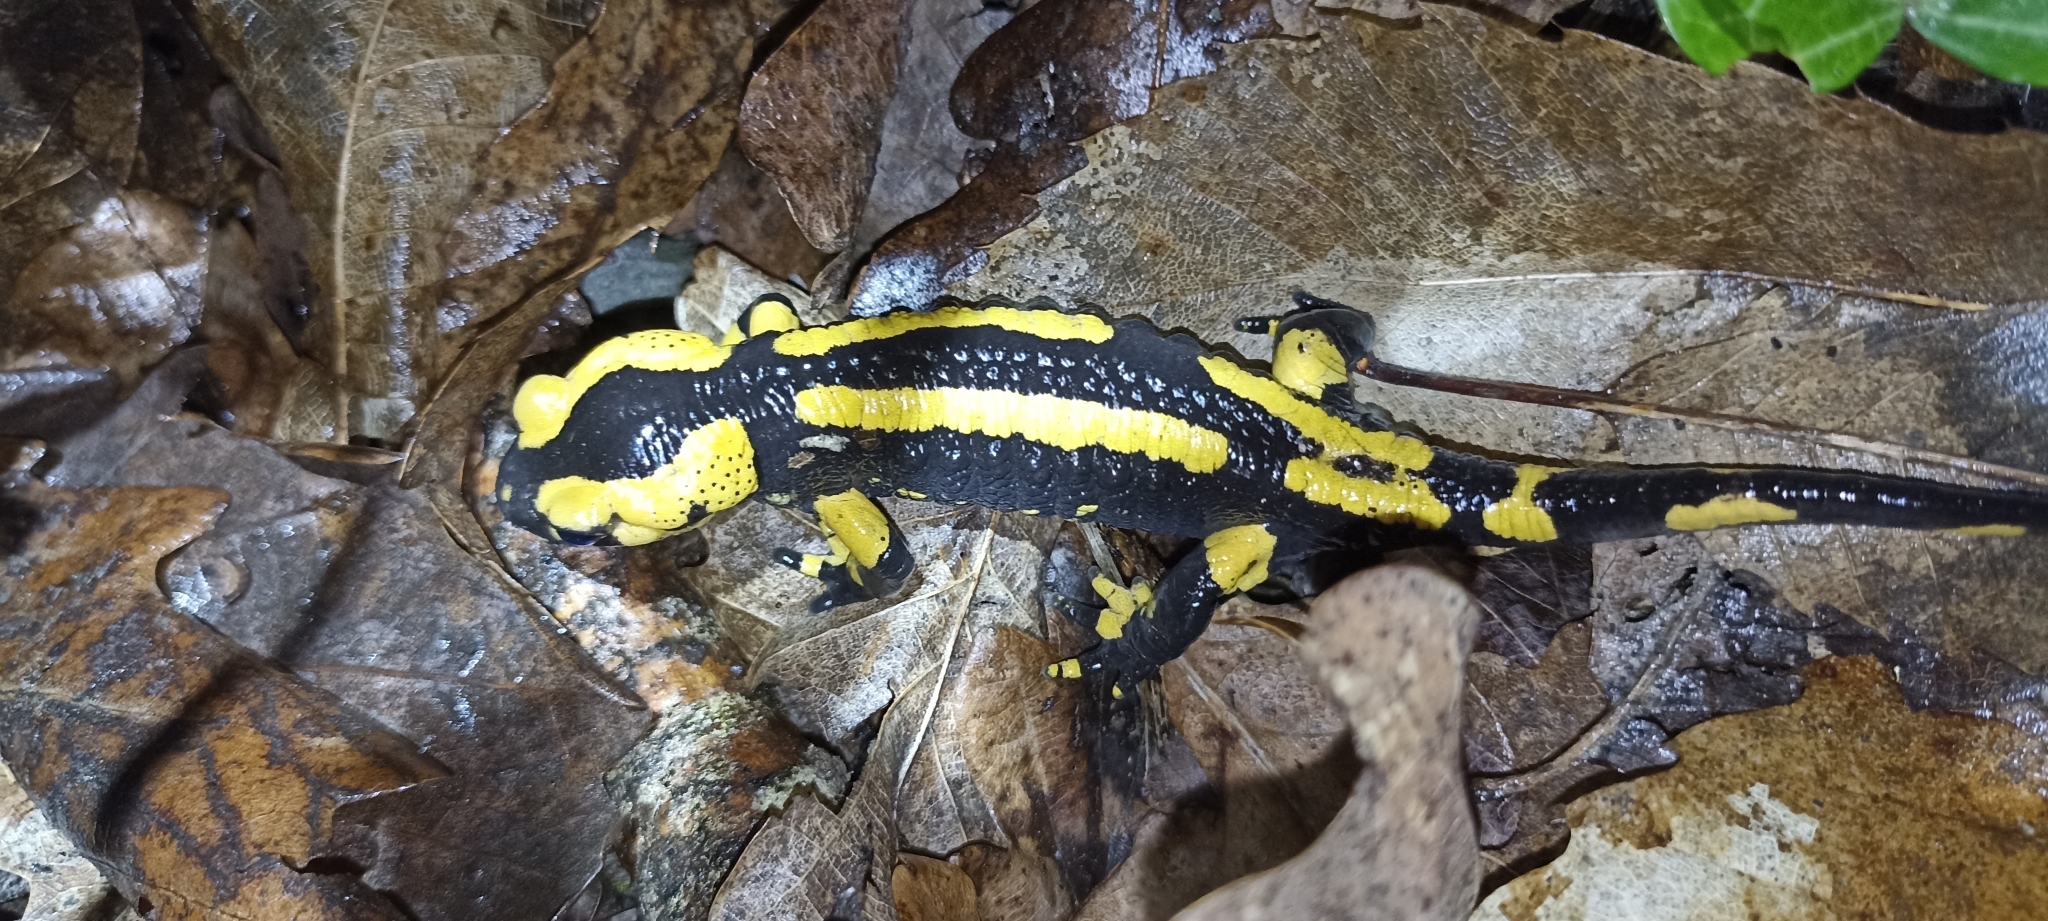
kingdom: Animalia
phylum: Chordata
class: Amphibia
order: Caudata
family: Salamandridae
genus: Salamandra
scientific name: Salamandra salamandra
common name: Fire salamander
